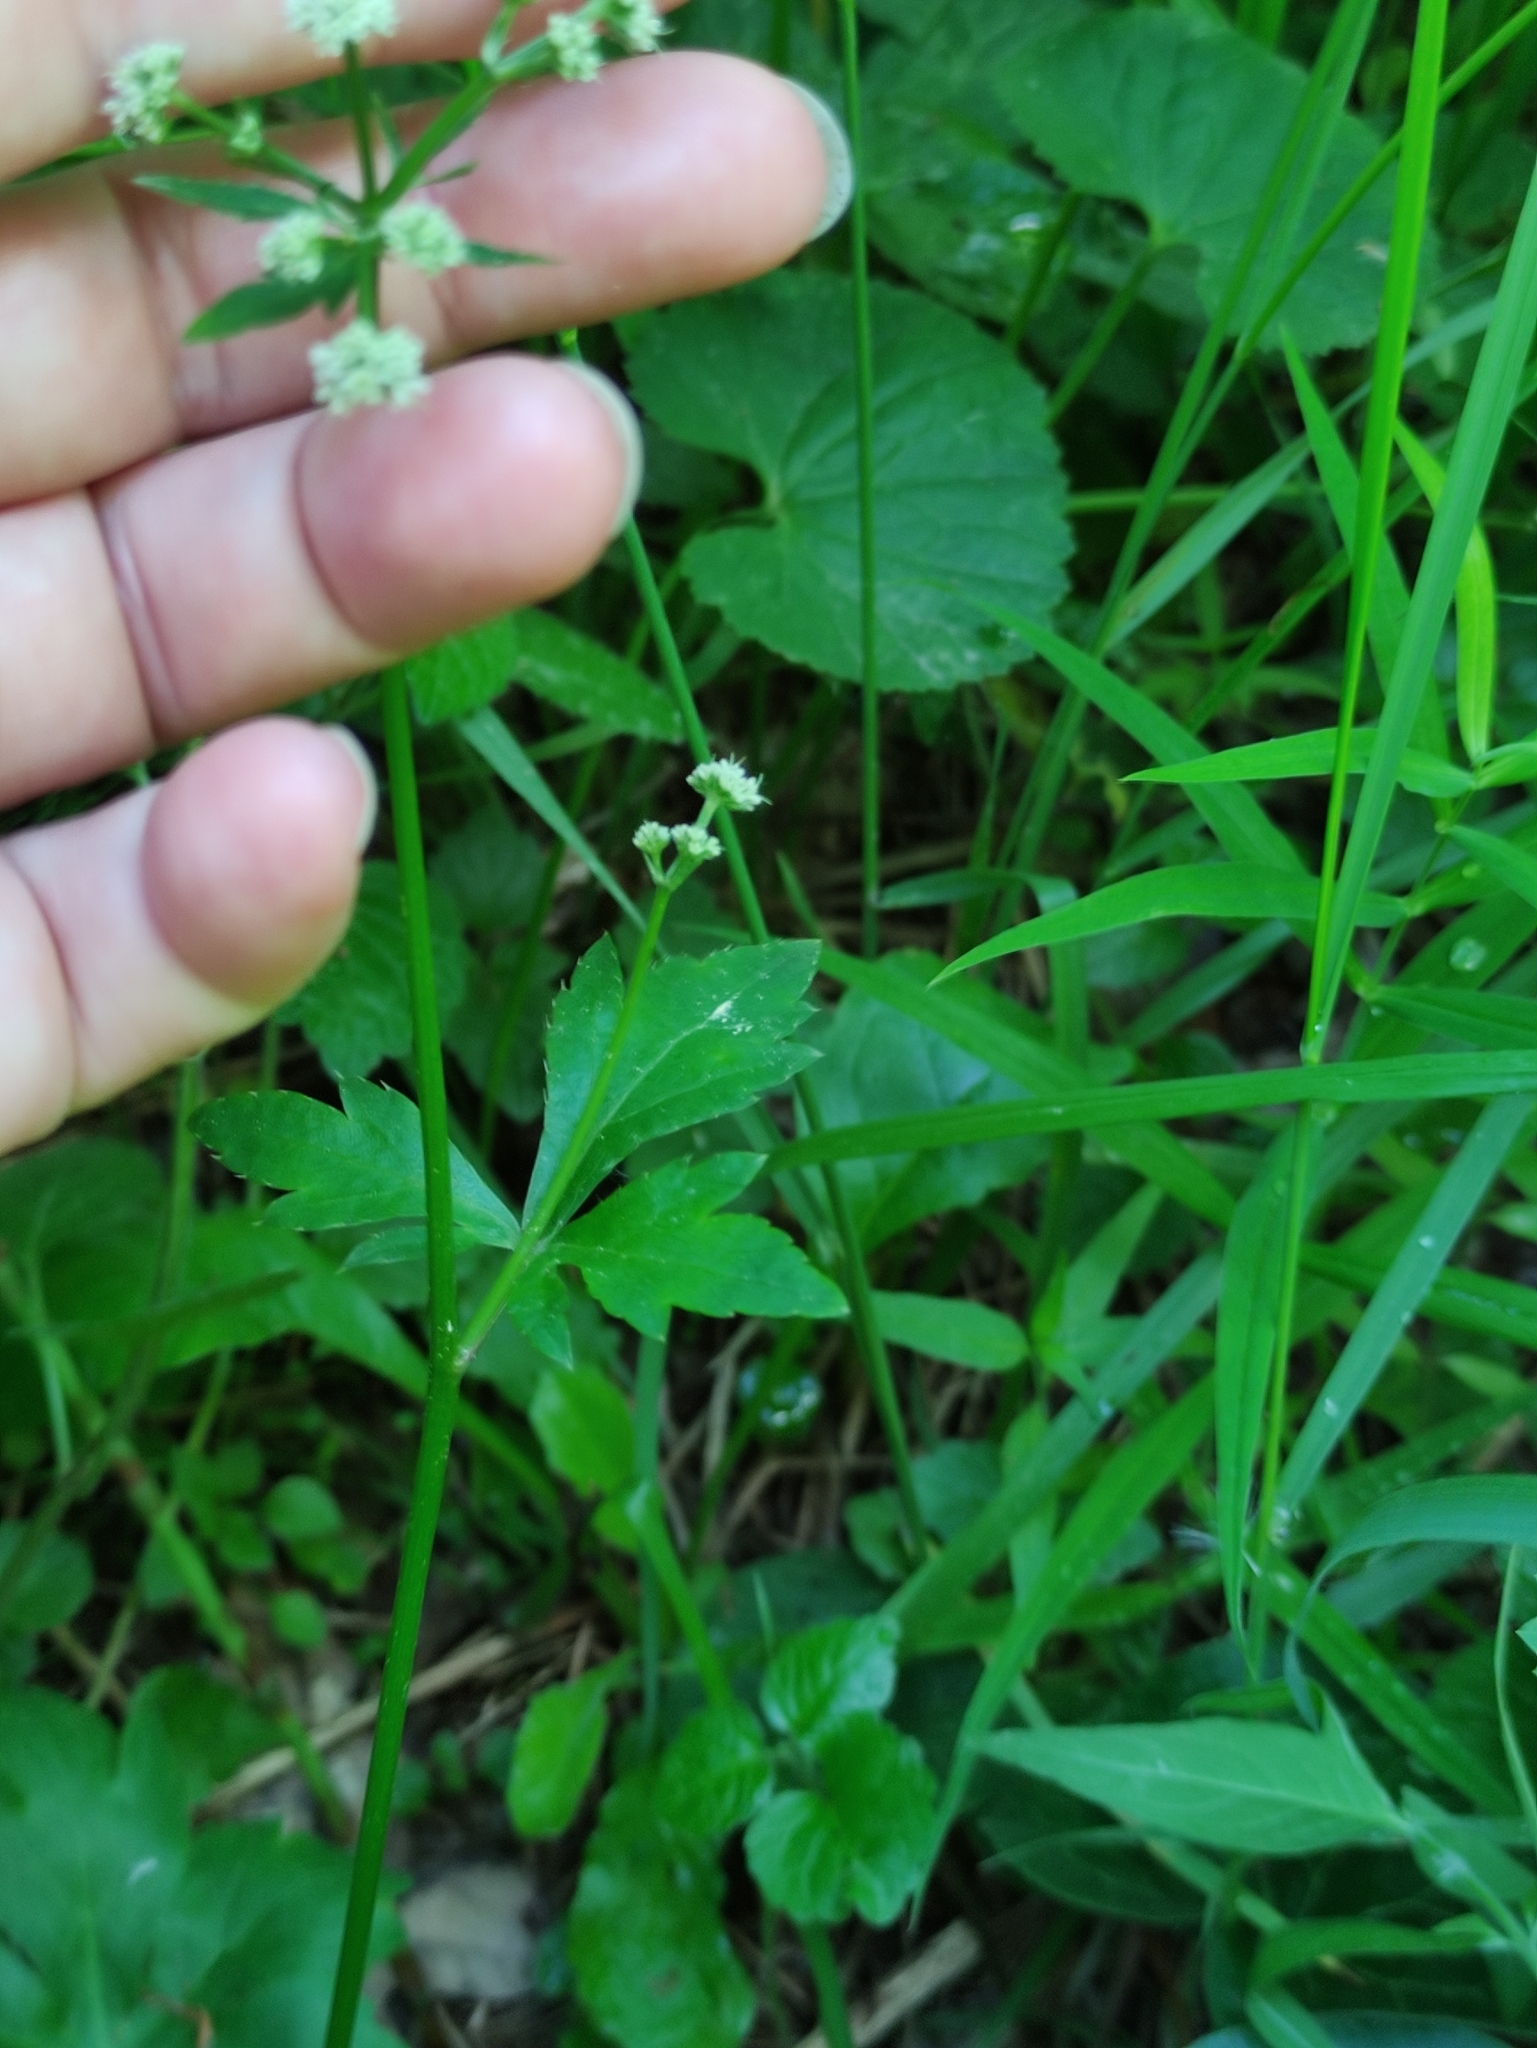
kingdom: Plantae
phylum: Tracheophyta
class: Magnoliopsida
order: Apiales
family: Apiaceae
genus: Sanicula
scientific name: Sanicula europaea
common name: Sanicle
